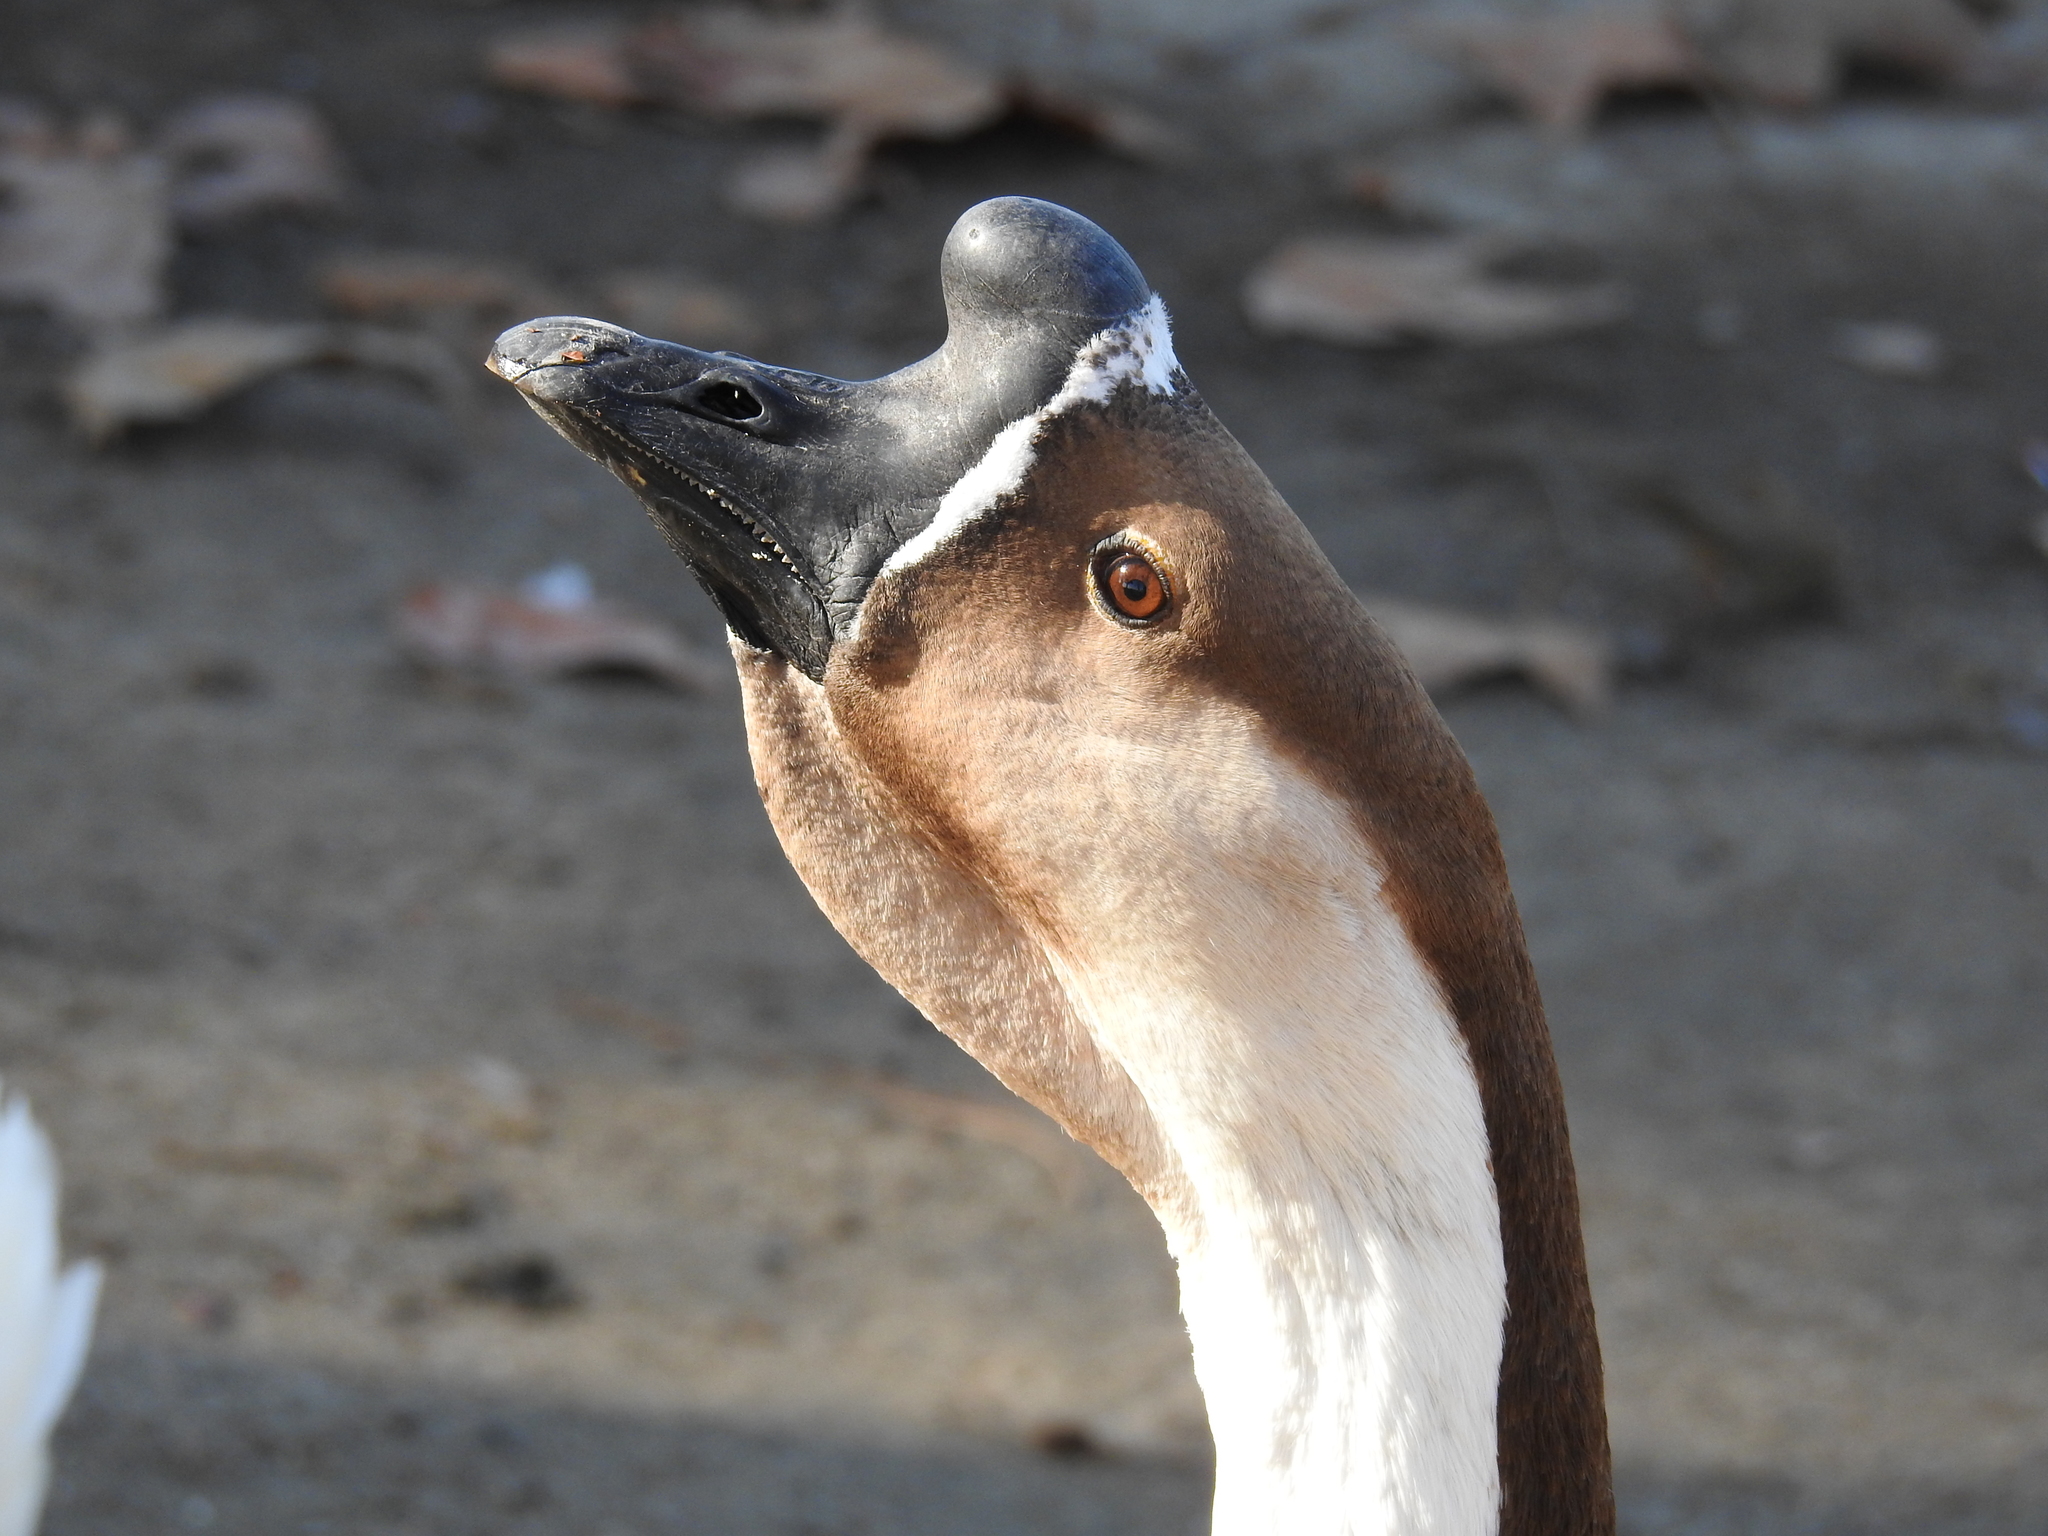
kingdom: Animalia
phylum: Chordata
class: Aves
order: Anseriformes
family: Anatidae
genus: Anser
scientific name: Anser cygnoides
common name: Swan goose
